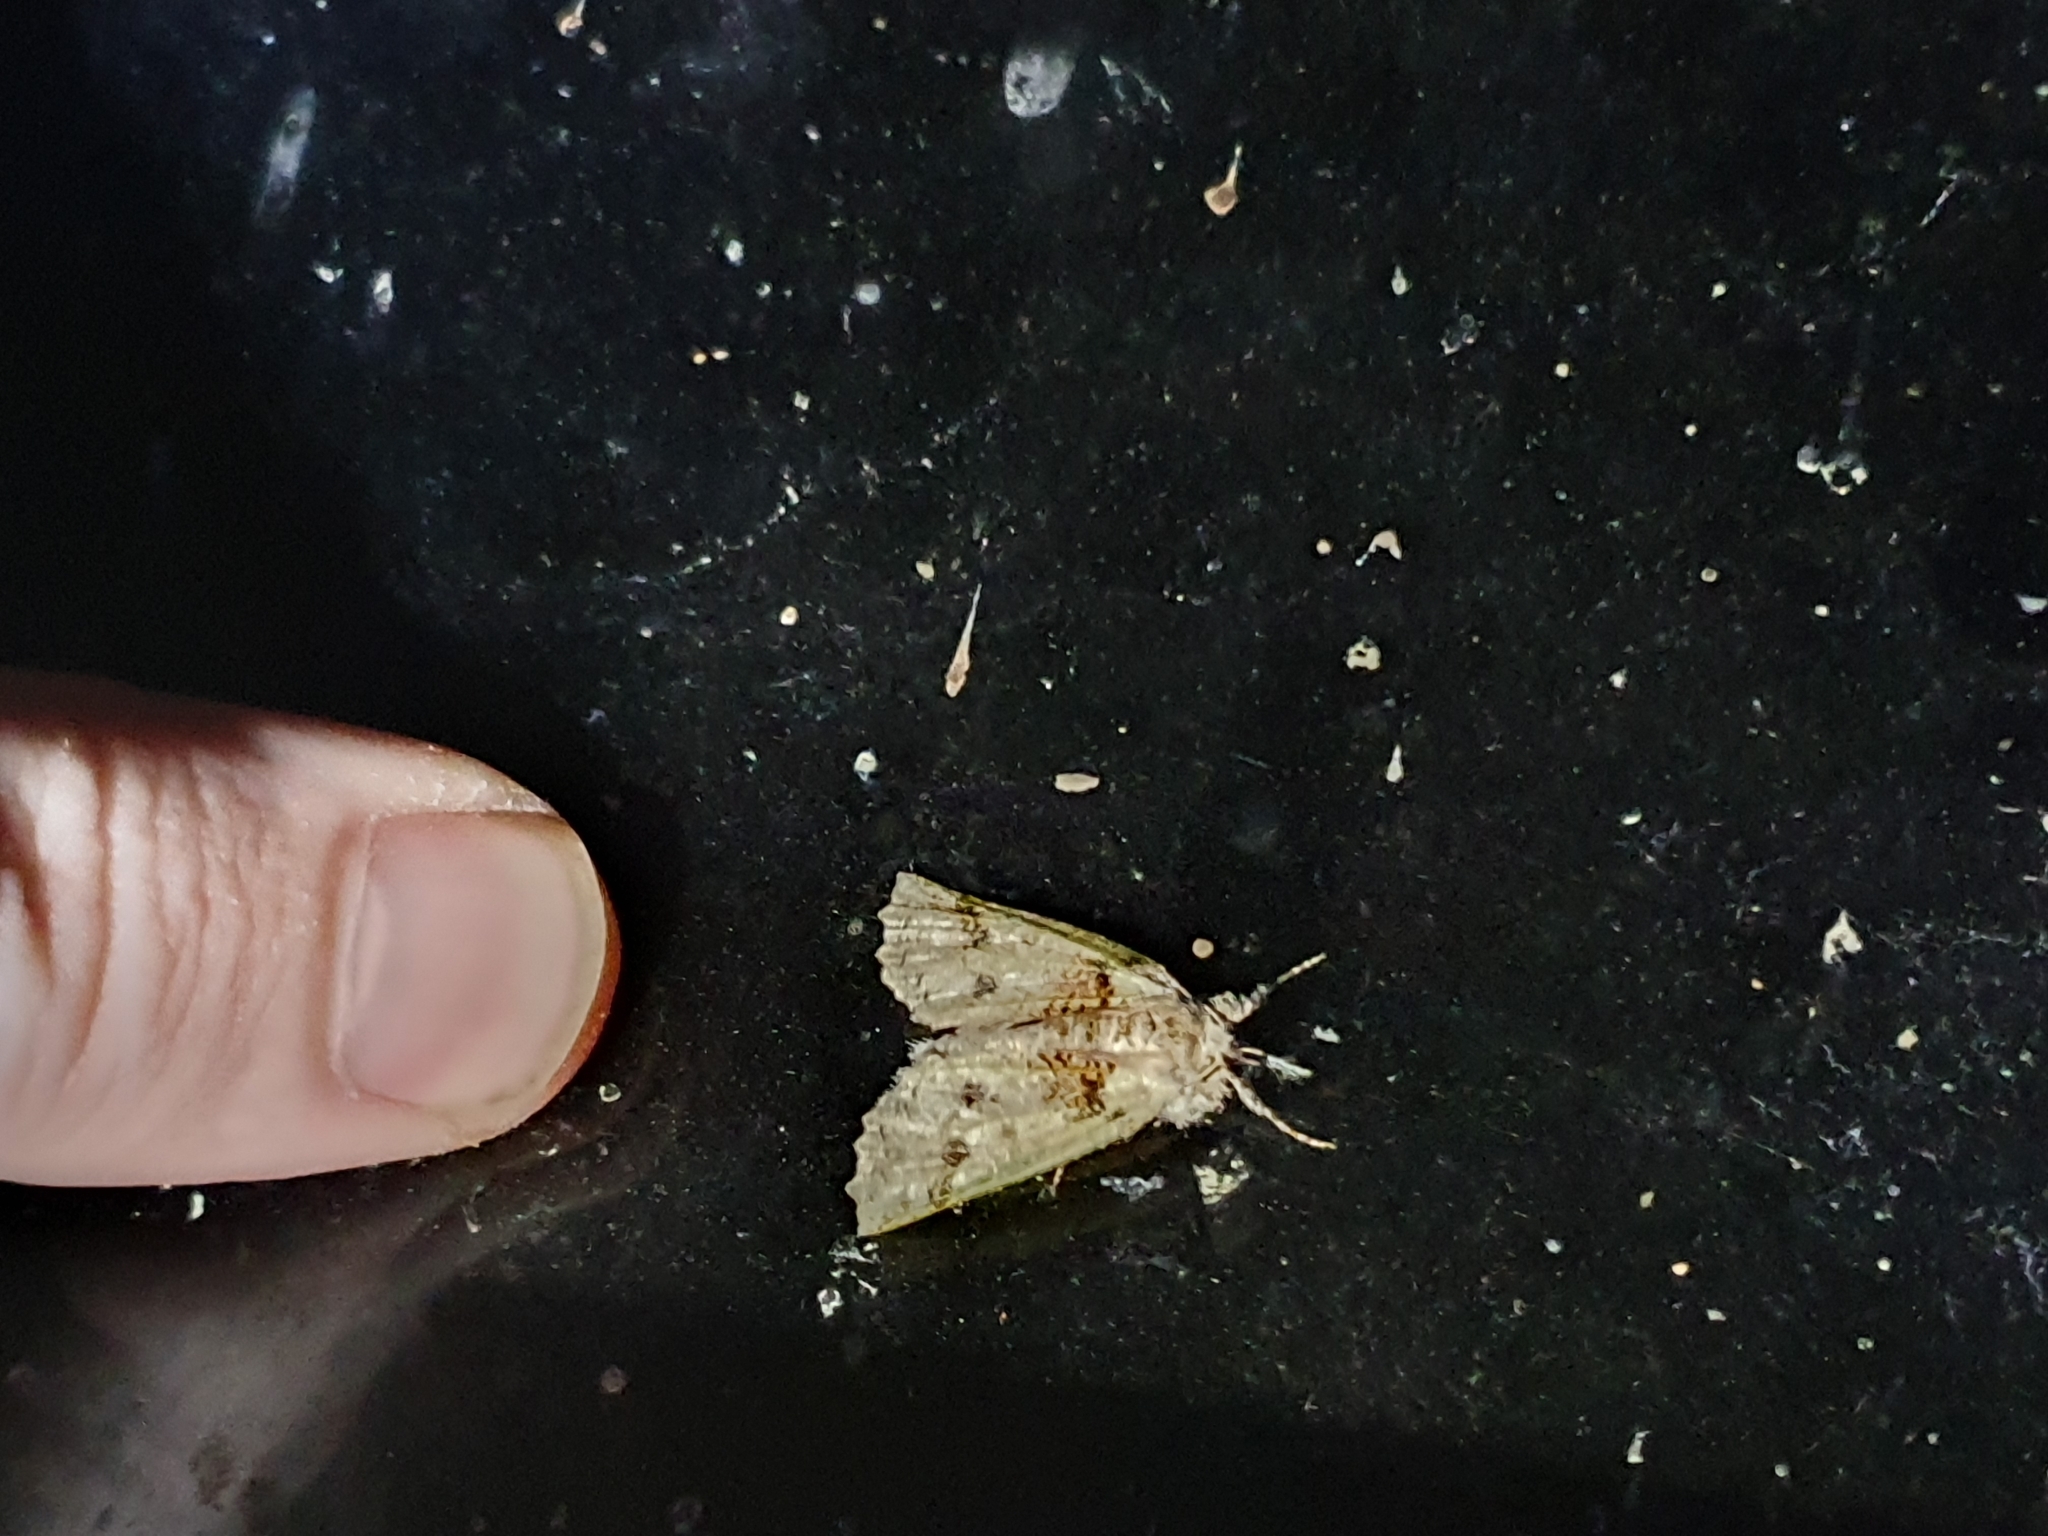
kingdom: Animalia
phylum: Arthropoda
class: Insecta
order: Lepidoptera
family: Geometridae
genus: Declana
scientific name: Declana floccosa
